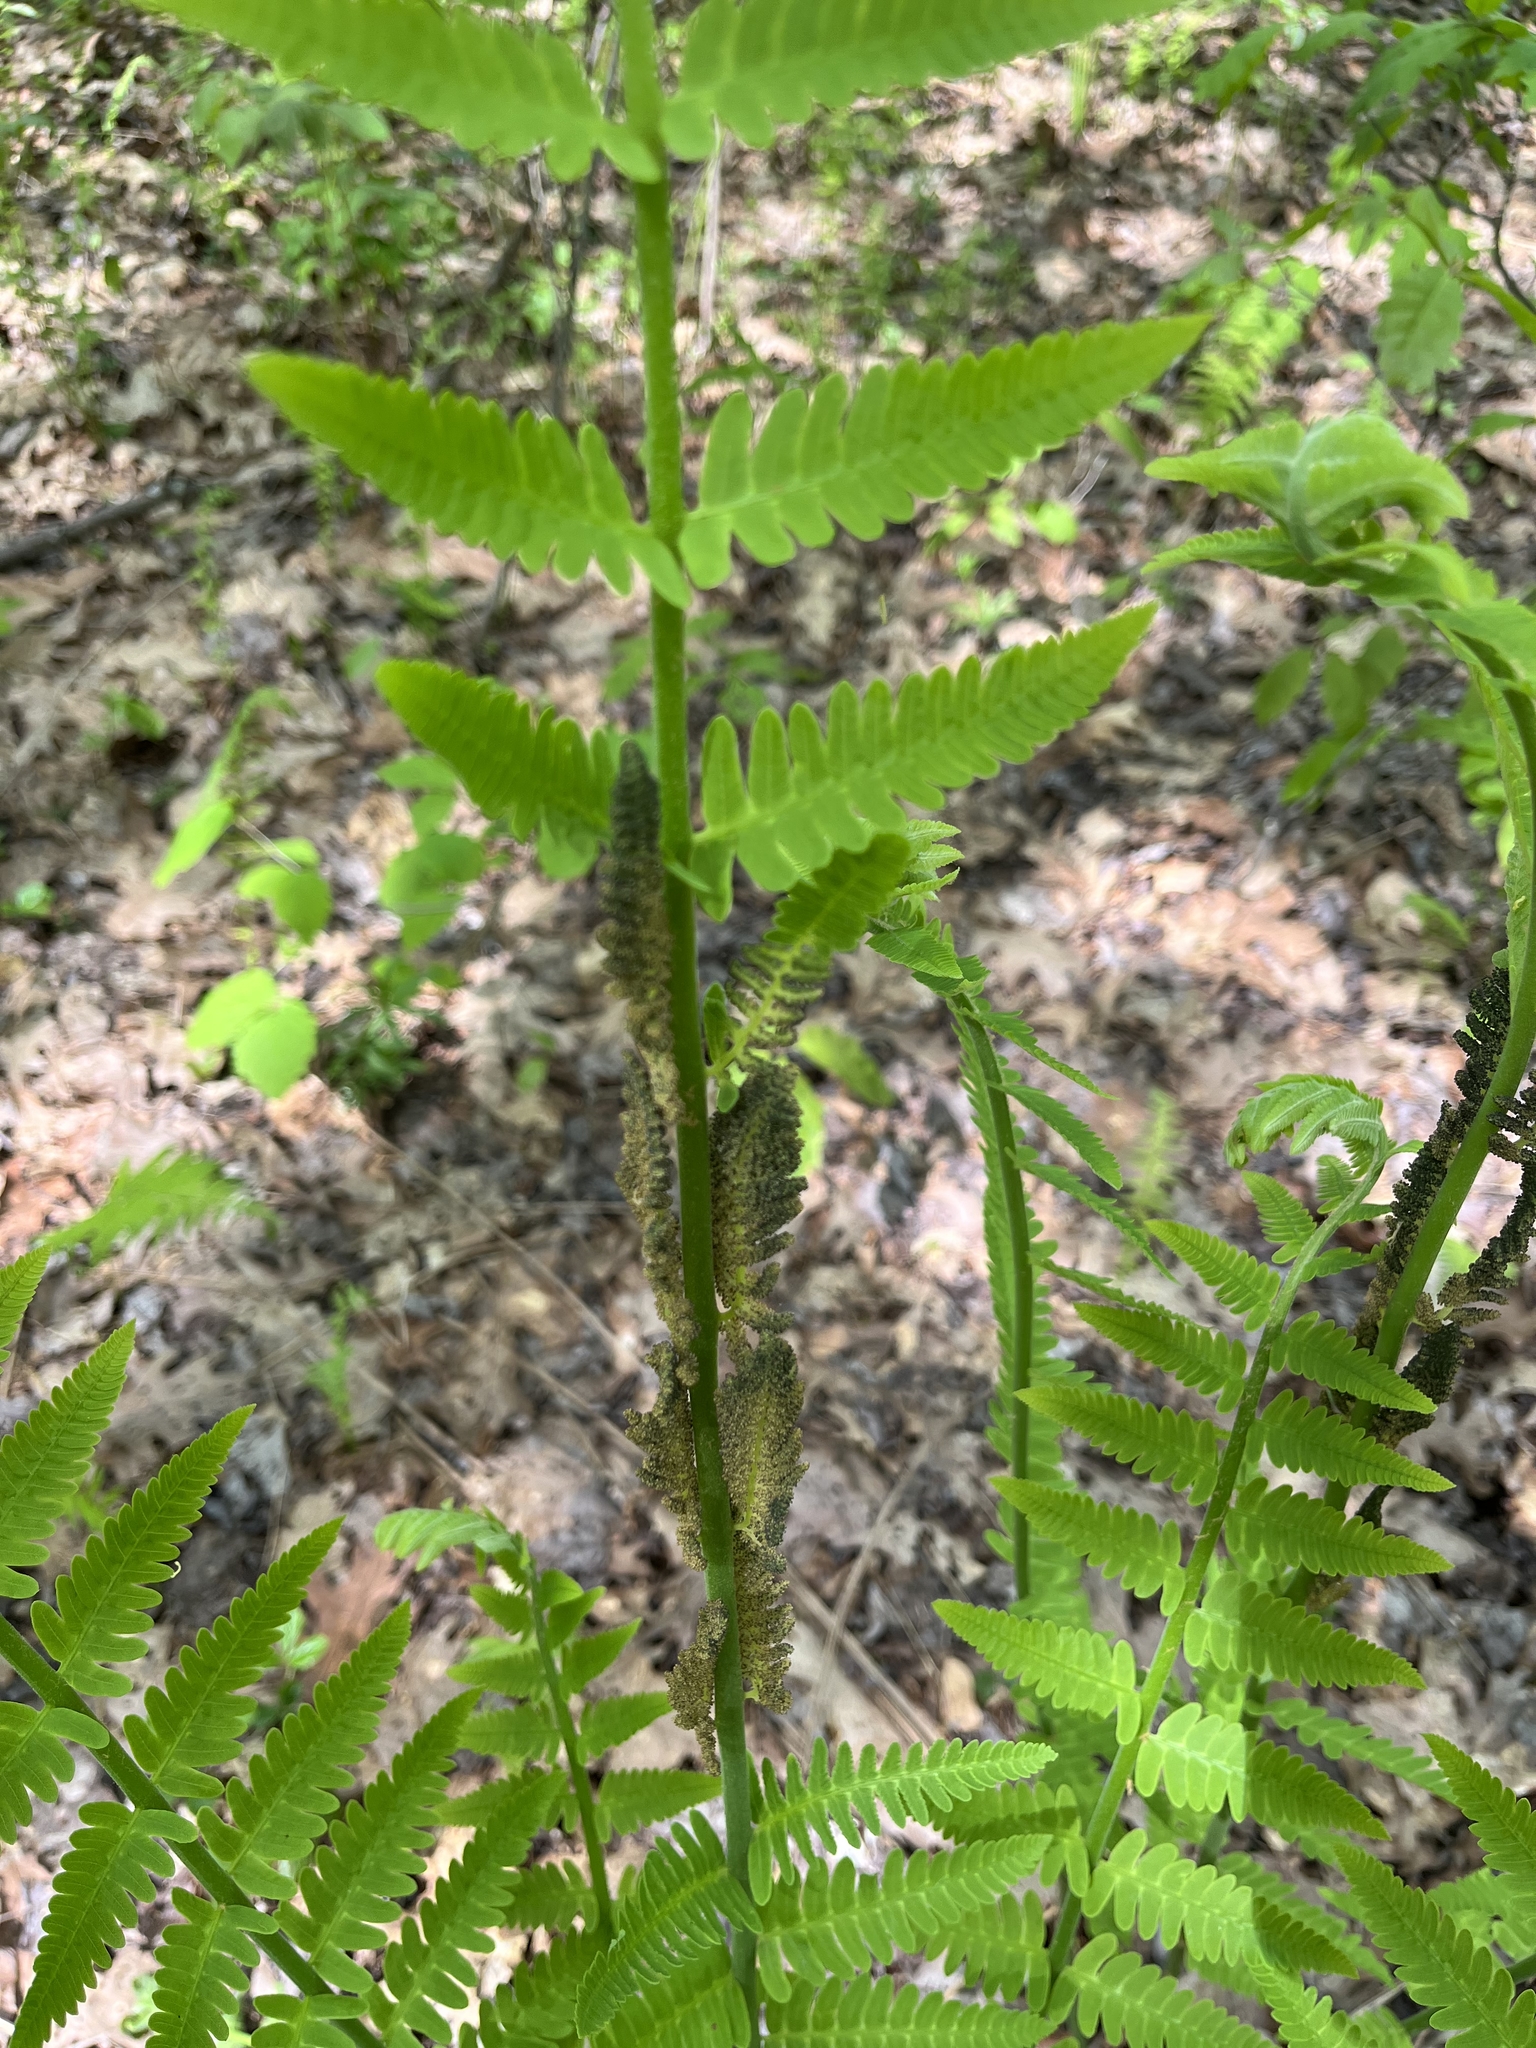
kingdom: Plantae
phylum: Tracheophyta
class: Polypodiopsida
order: Osmundales
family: Osmundaceae
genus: Claytosmunda
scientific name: Claytosmunda claytoniana
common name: Clayton's fern
